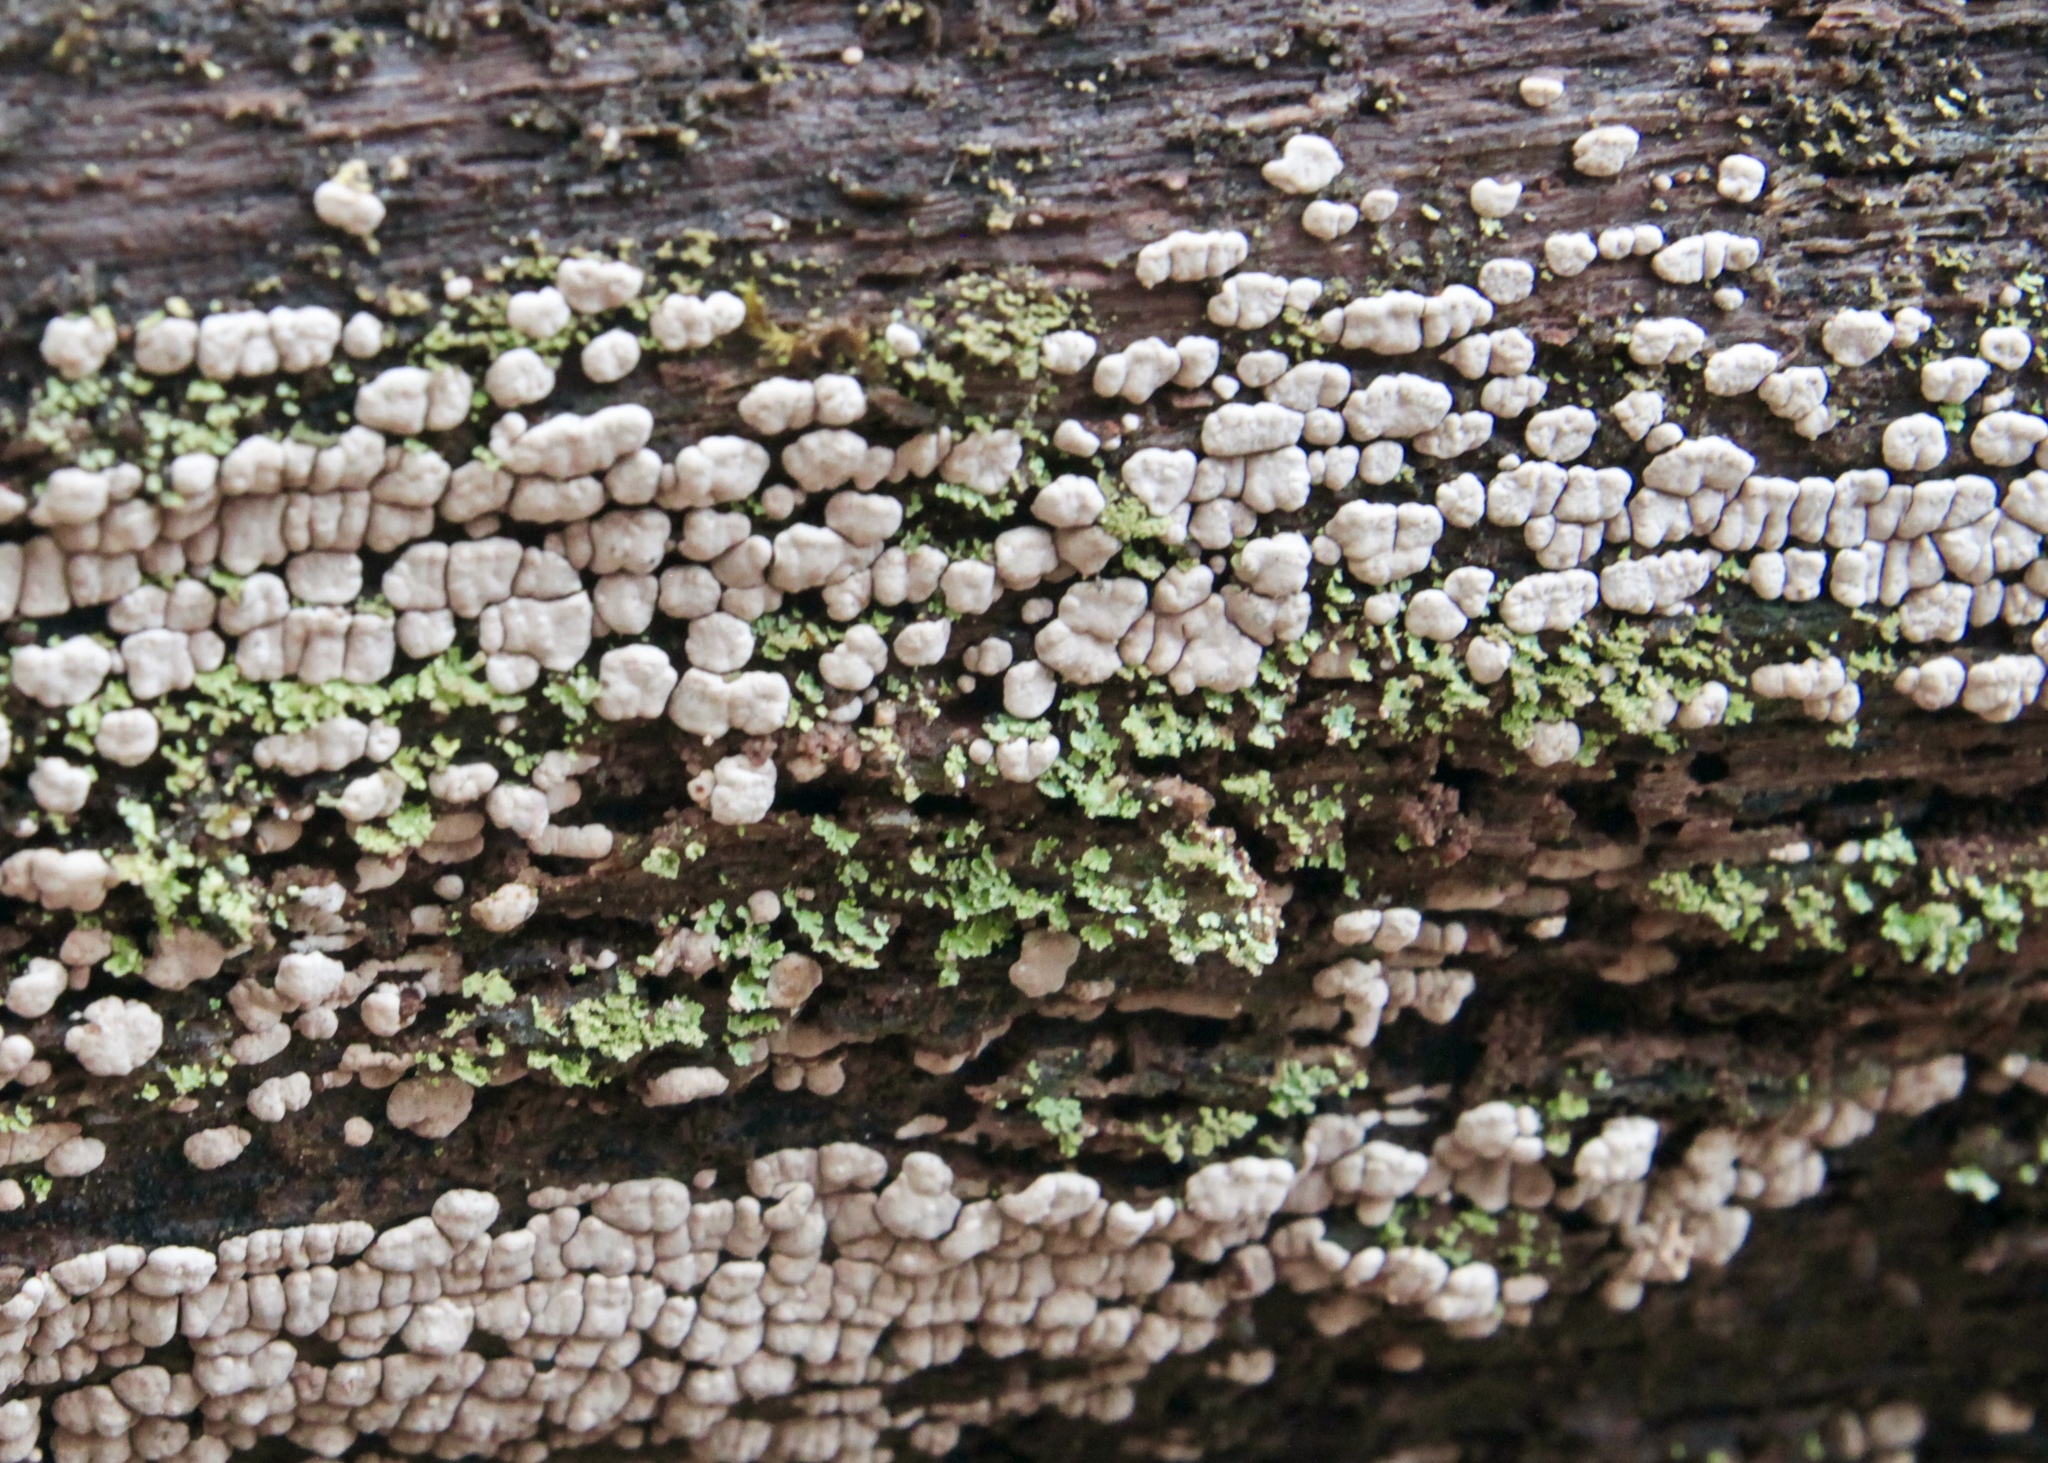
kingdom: Fungi
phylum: Basidiomycota
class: Agaricomycetes
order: Russulales
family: Stereaceae
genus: Xylobolus
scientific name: Xylobolus frustulatus
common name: Ceramic parchment
